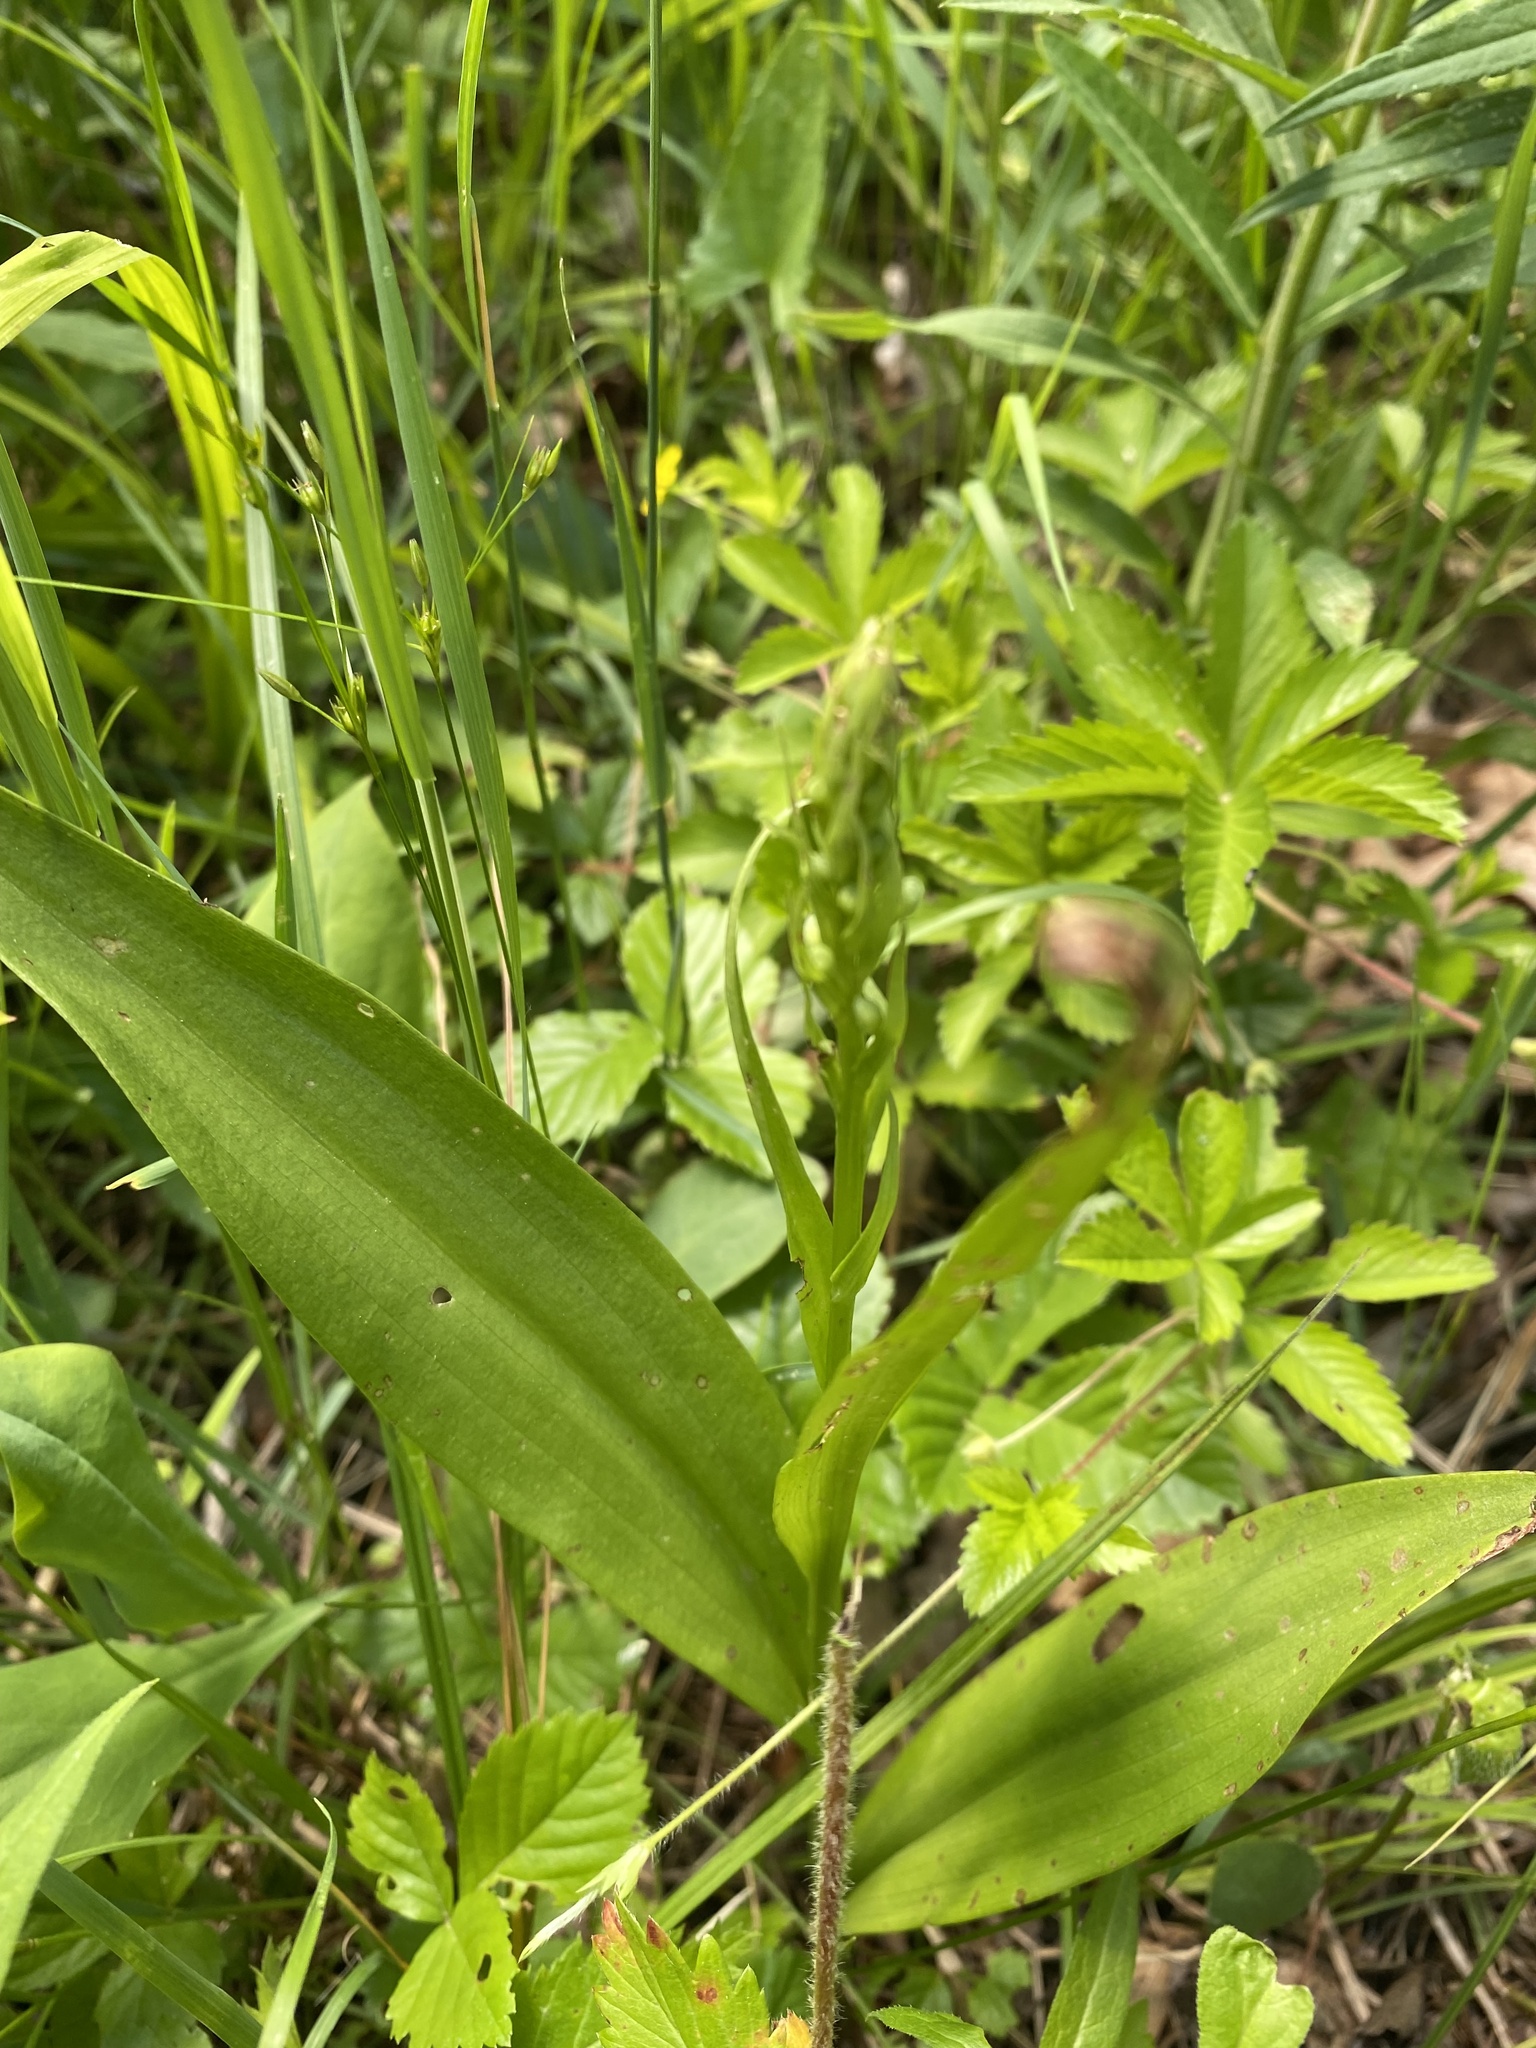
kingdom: Plantae
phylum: Tracheophyta
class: Liliopsida
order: Asparagales
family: Orchidaceae
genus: Platanthera
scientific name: Platanthera flava
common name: Gypsy-spikes
